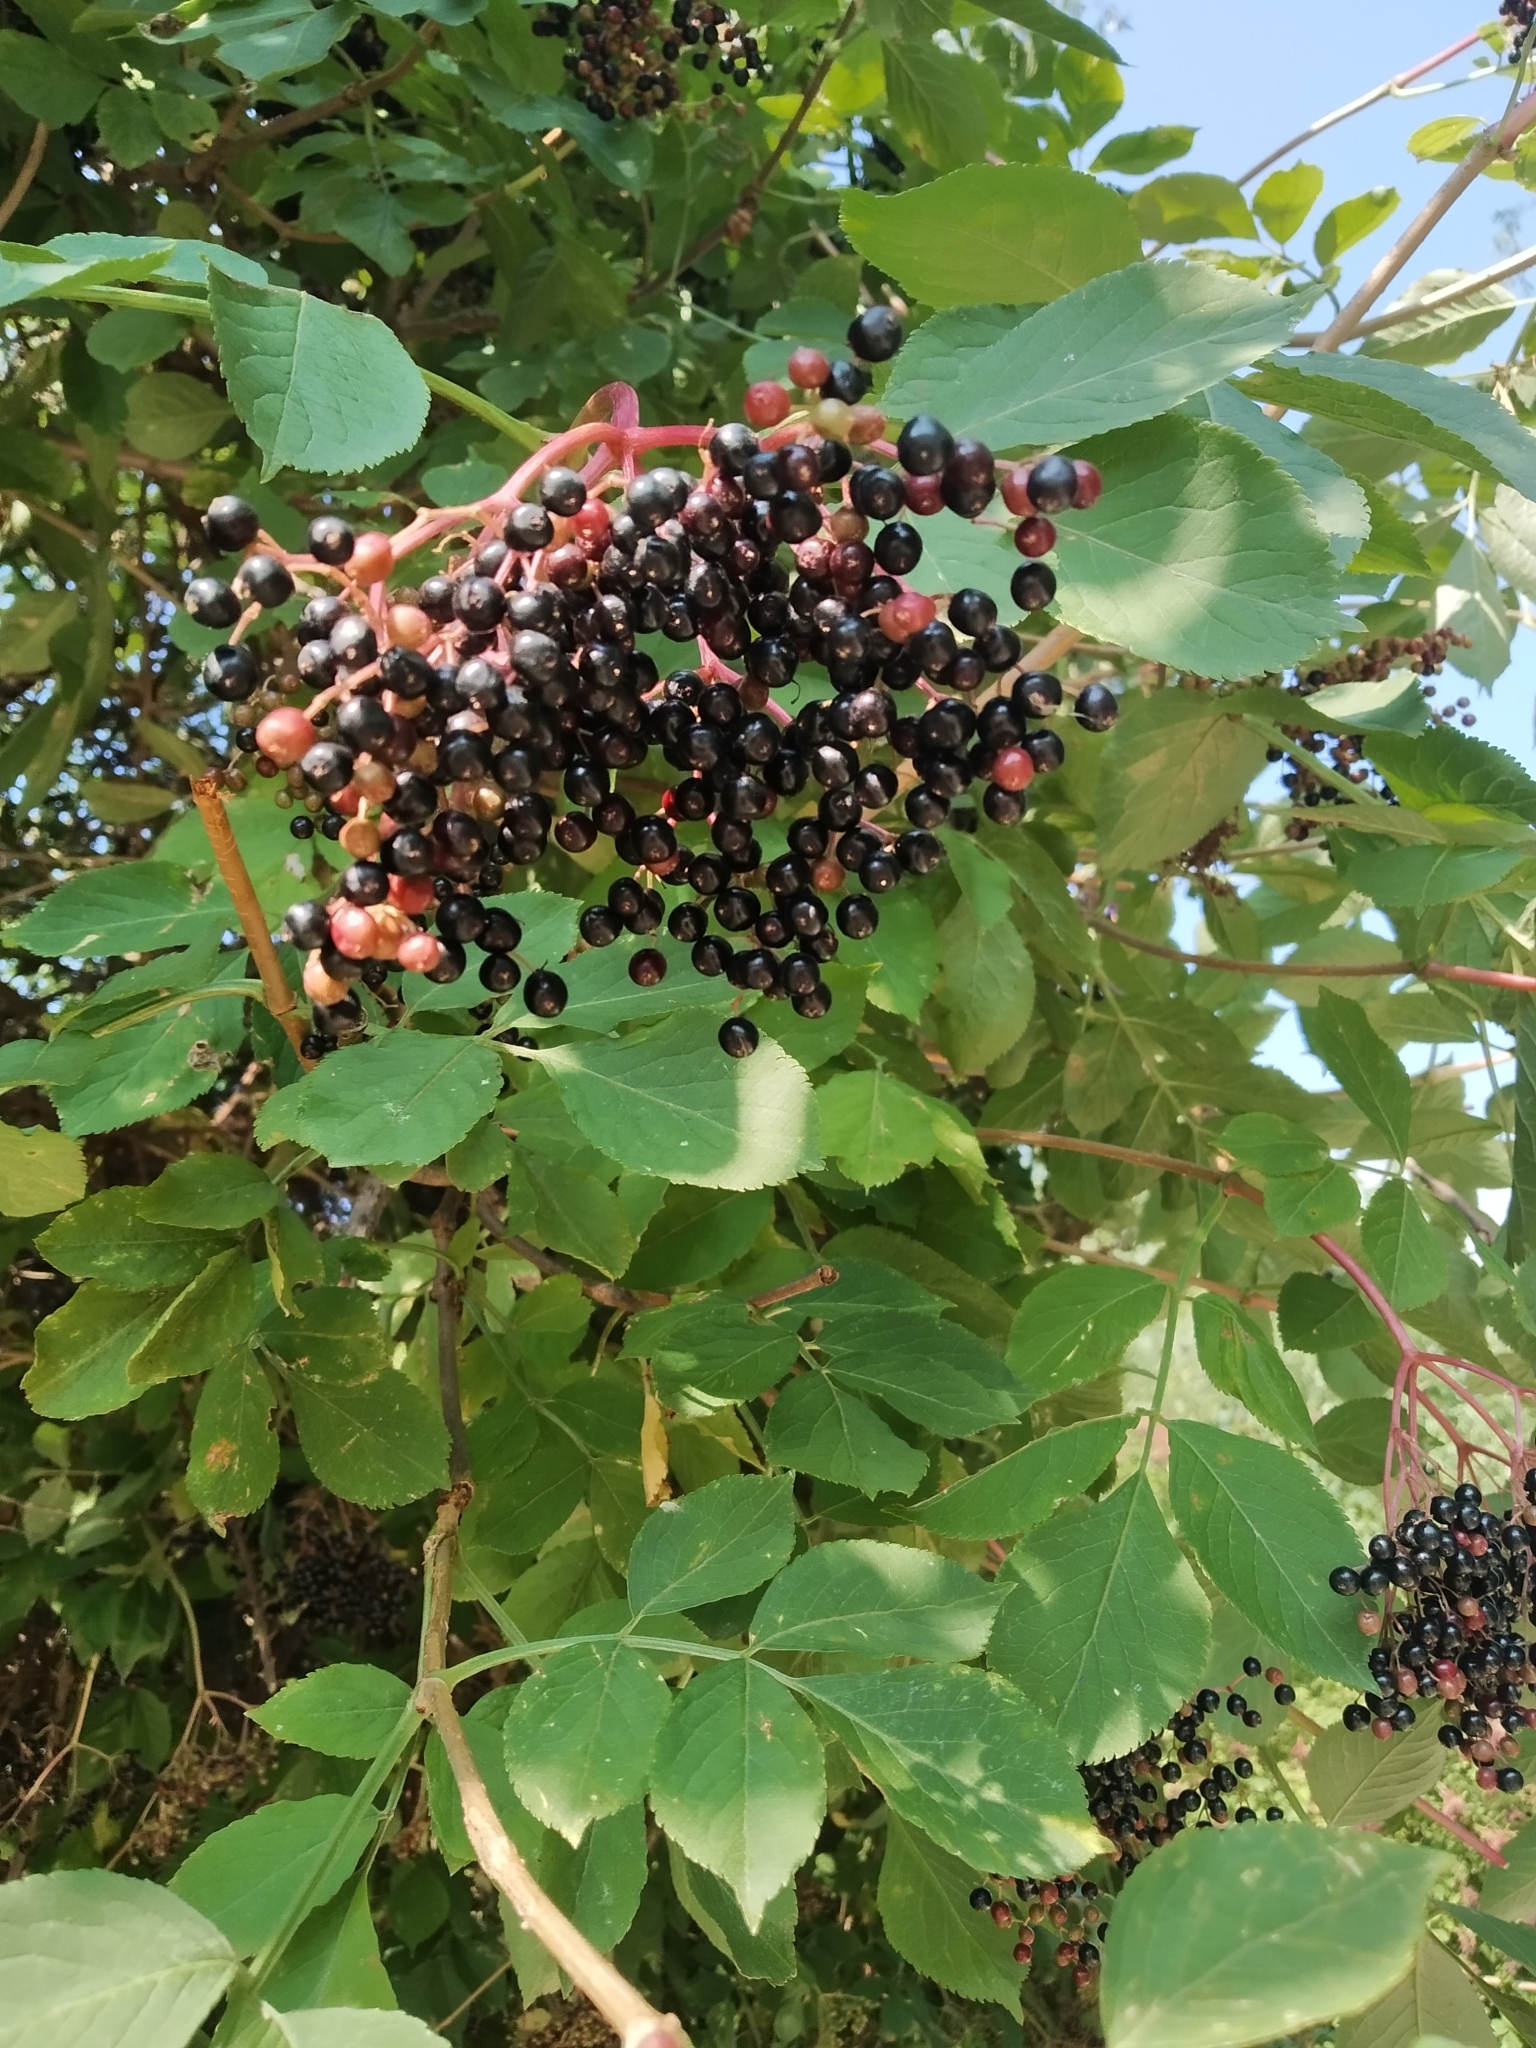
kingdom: Plantae
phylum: Tracheophyta
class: Magnoliopsida
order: Dipsacales
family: Viburnaceae
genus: Sambucus
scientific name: Sambucus nigra
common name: Elder
